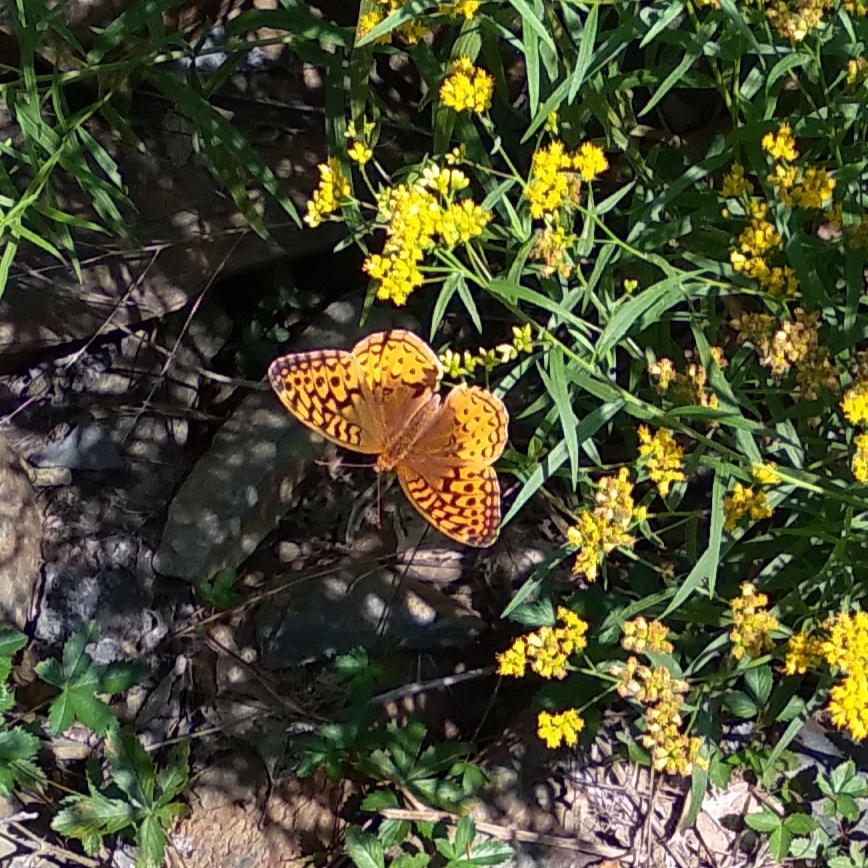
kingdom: Animalia
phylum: Arthropoda
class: Insecta
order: Lepidoptera
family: Nymphalidae
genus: Speyeria
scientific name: Speyeria cybele
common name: Great spangled fritillary
